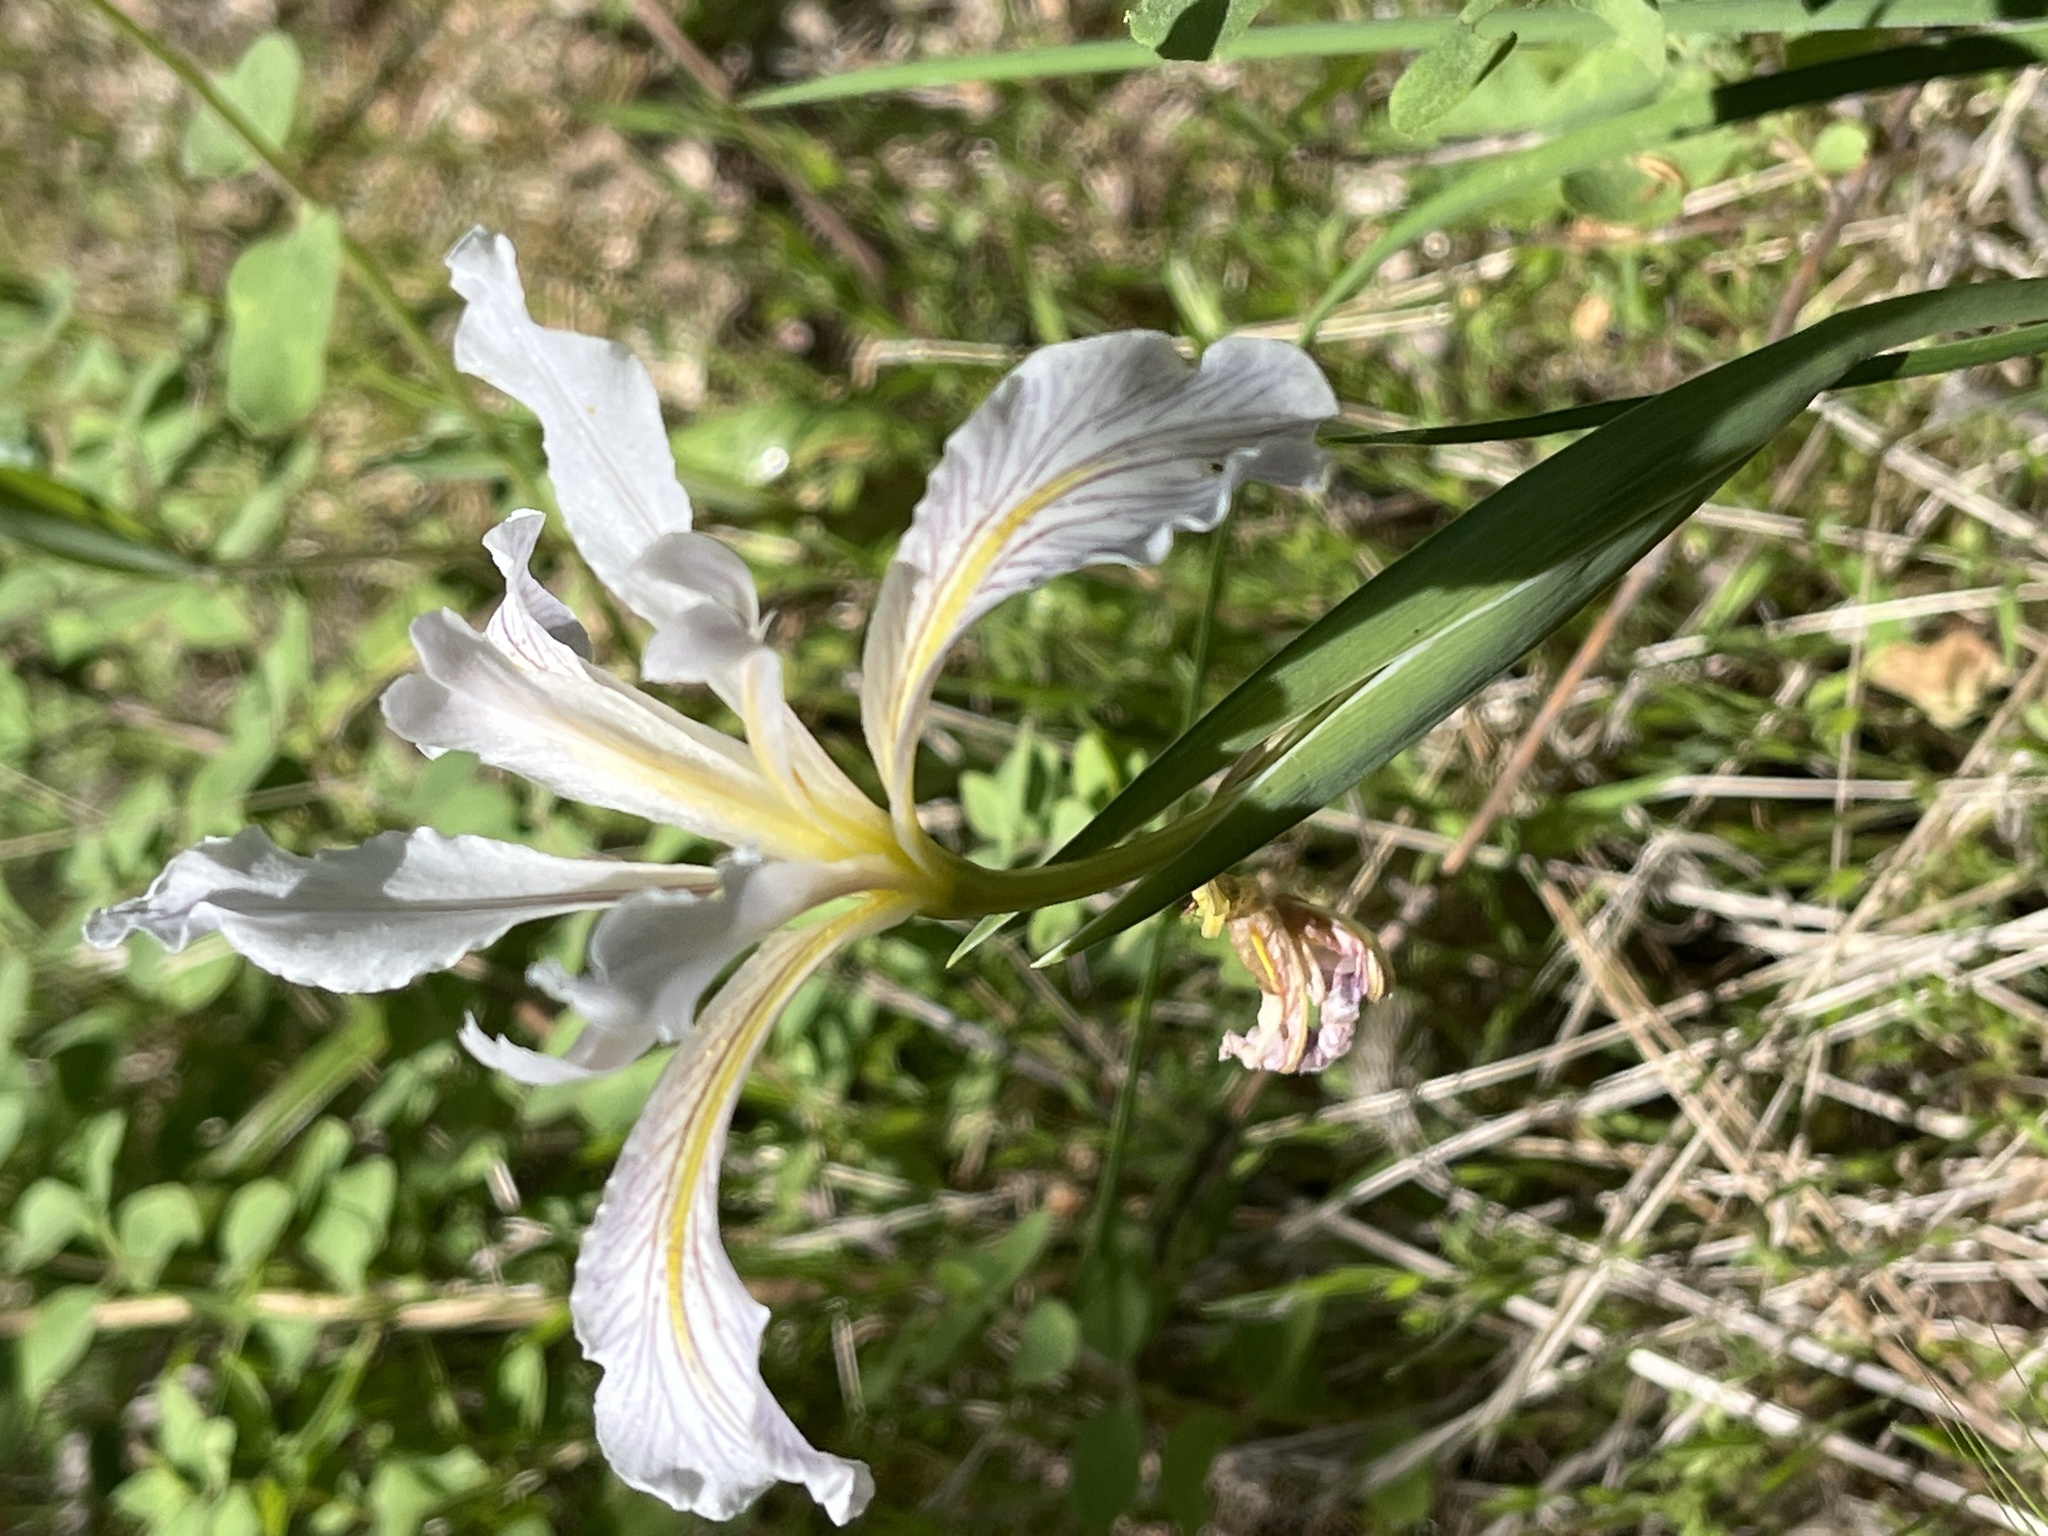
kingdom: Plantae
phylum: Tracheophyta
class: Liliopsida
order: Asparagales
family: Iridaceae
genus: Iris
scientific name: Iris macrosiphon
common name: Ground iris
